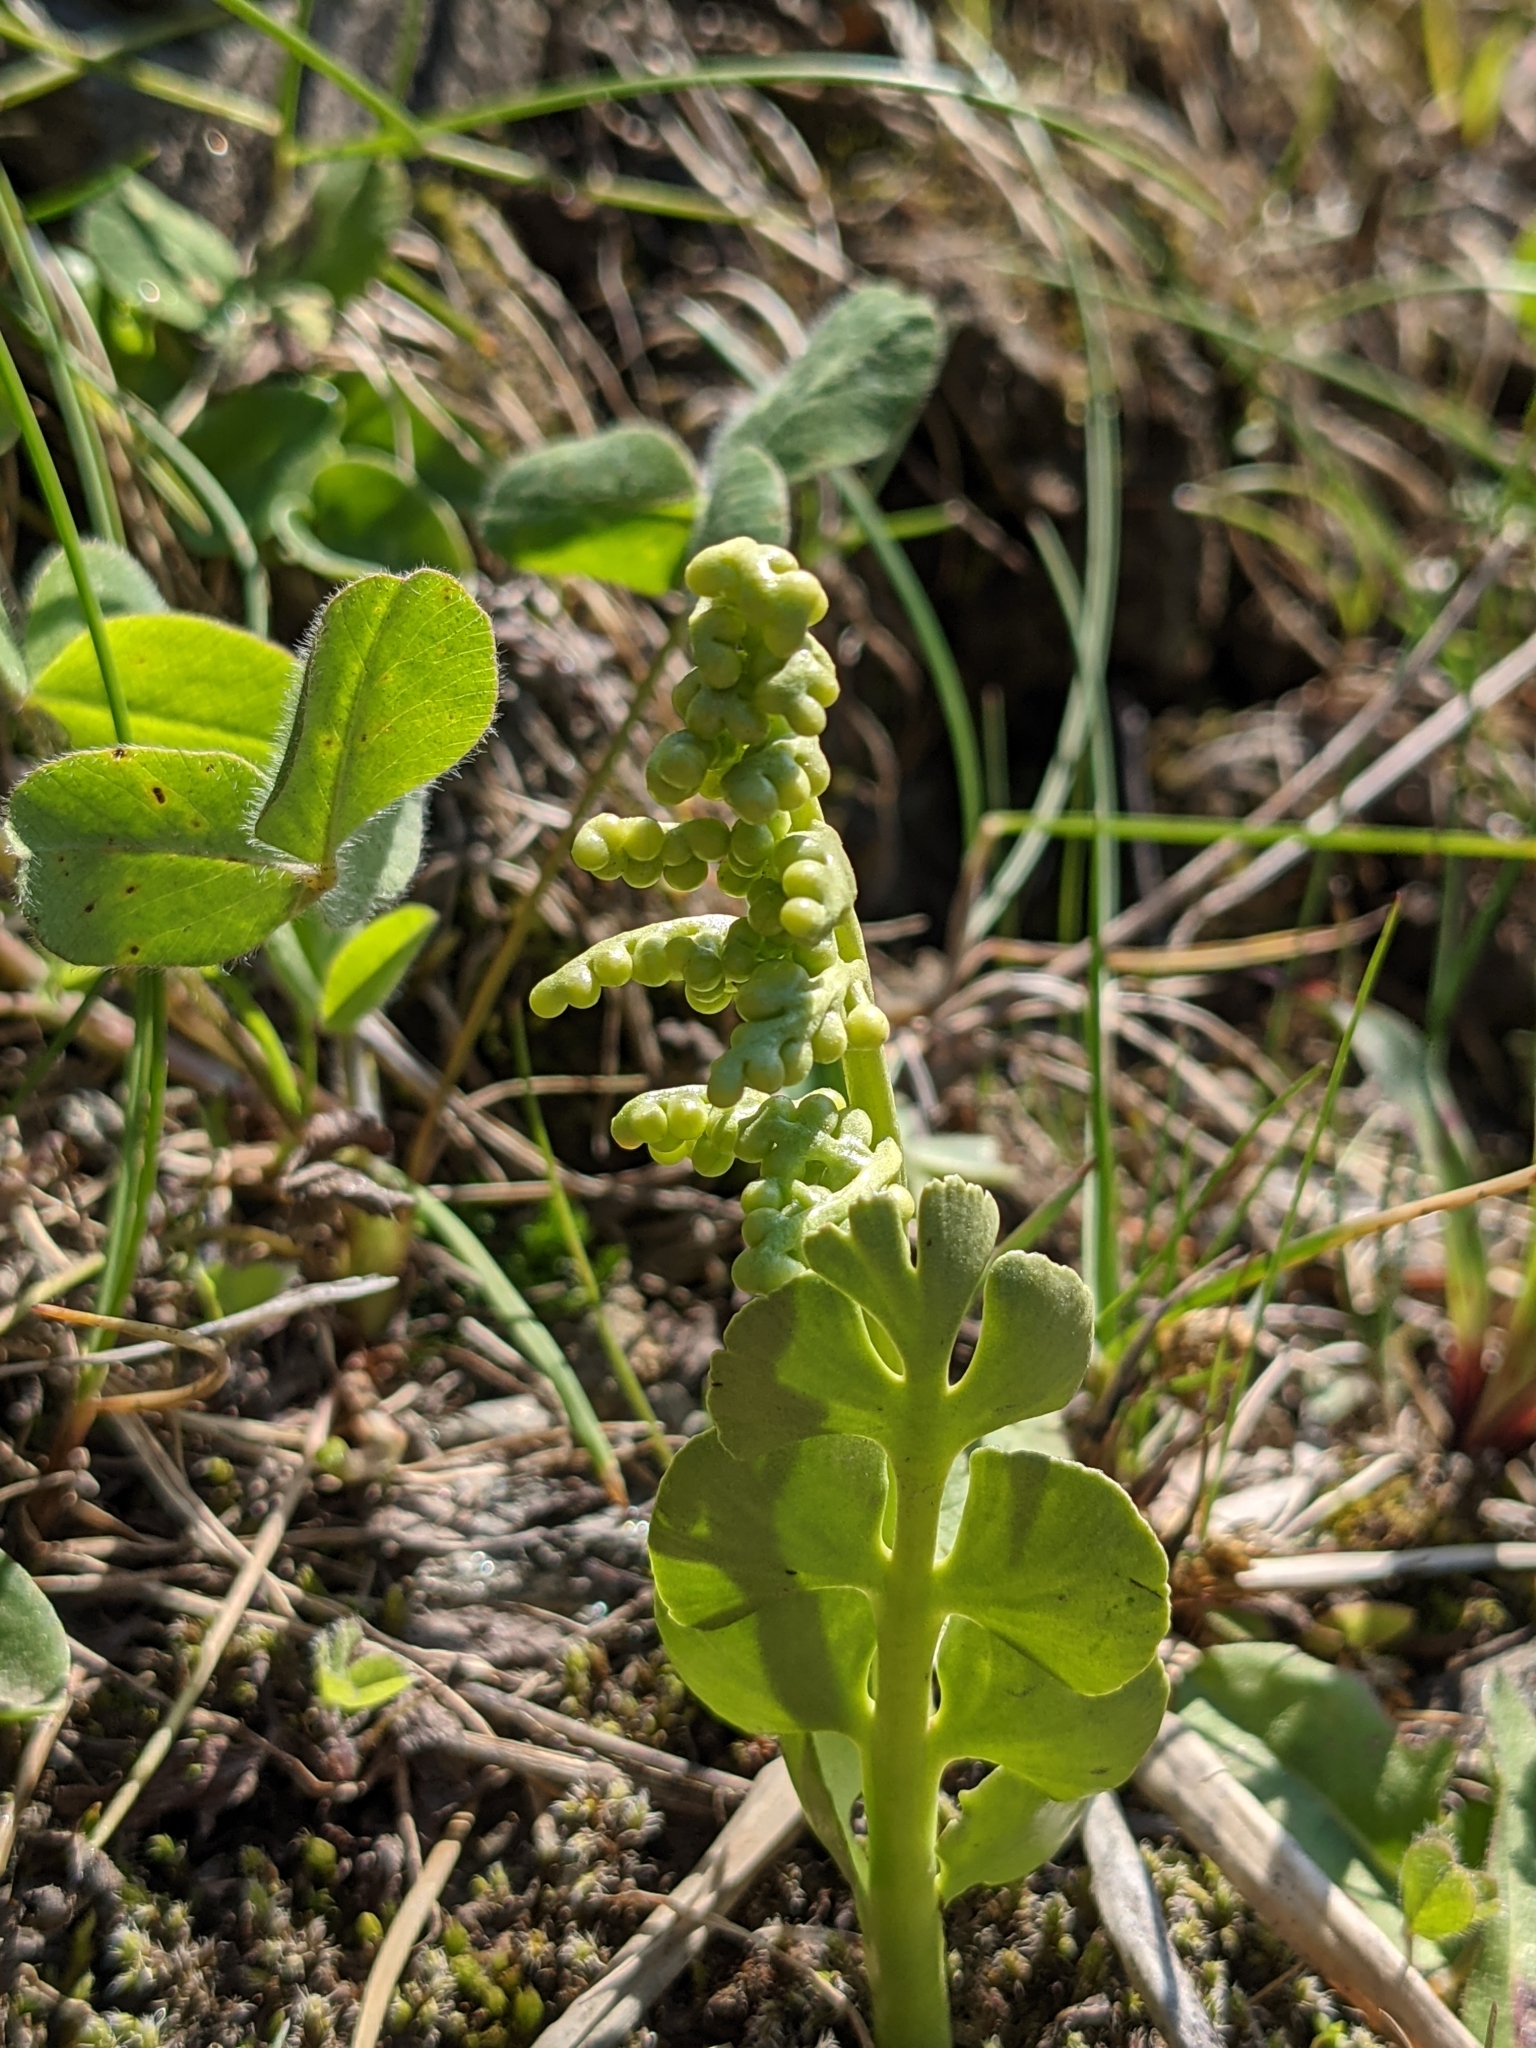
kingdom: Plantae
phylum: Tracheophyta
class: Polypodiopsida
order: Ophioglossales
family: Ophioglossaceae
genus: Botrychium
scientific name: Botrychium lunaria
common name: Moonwort
